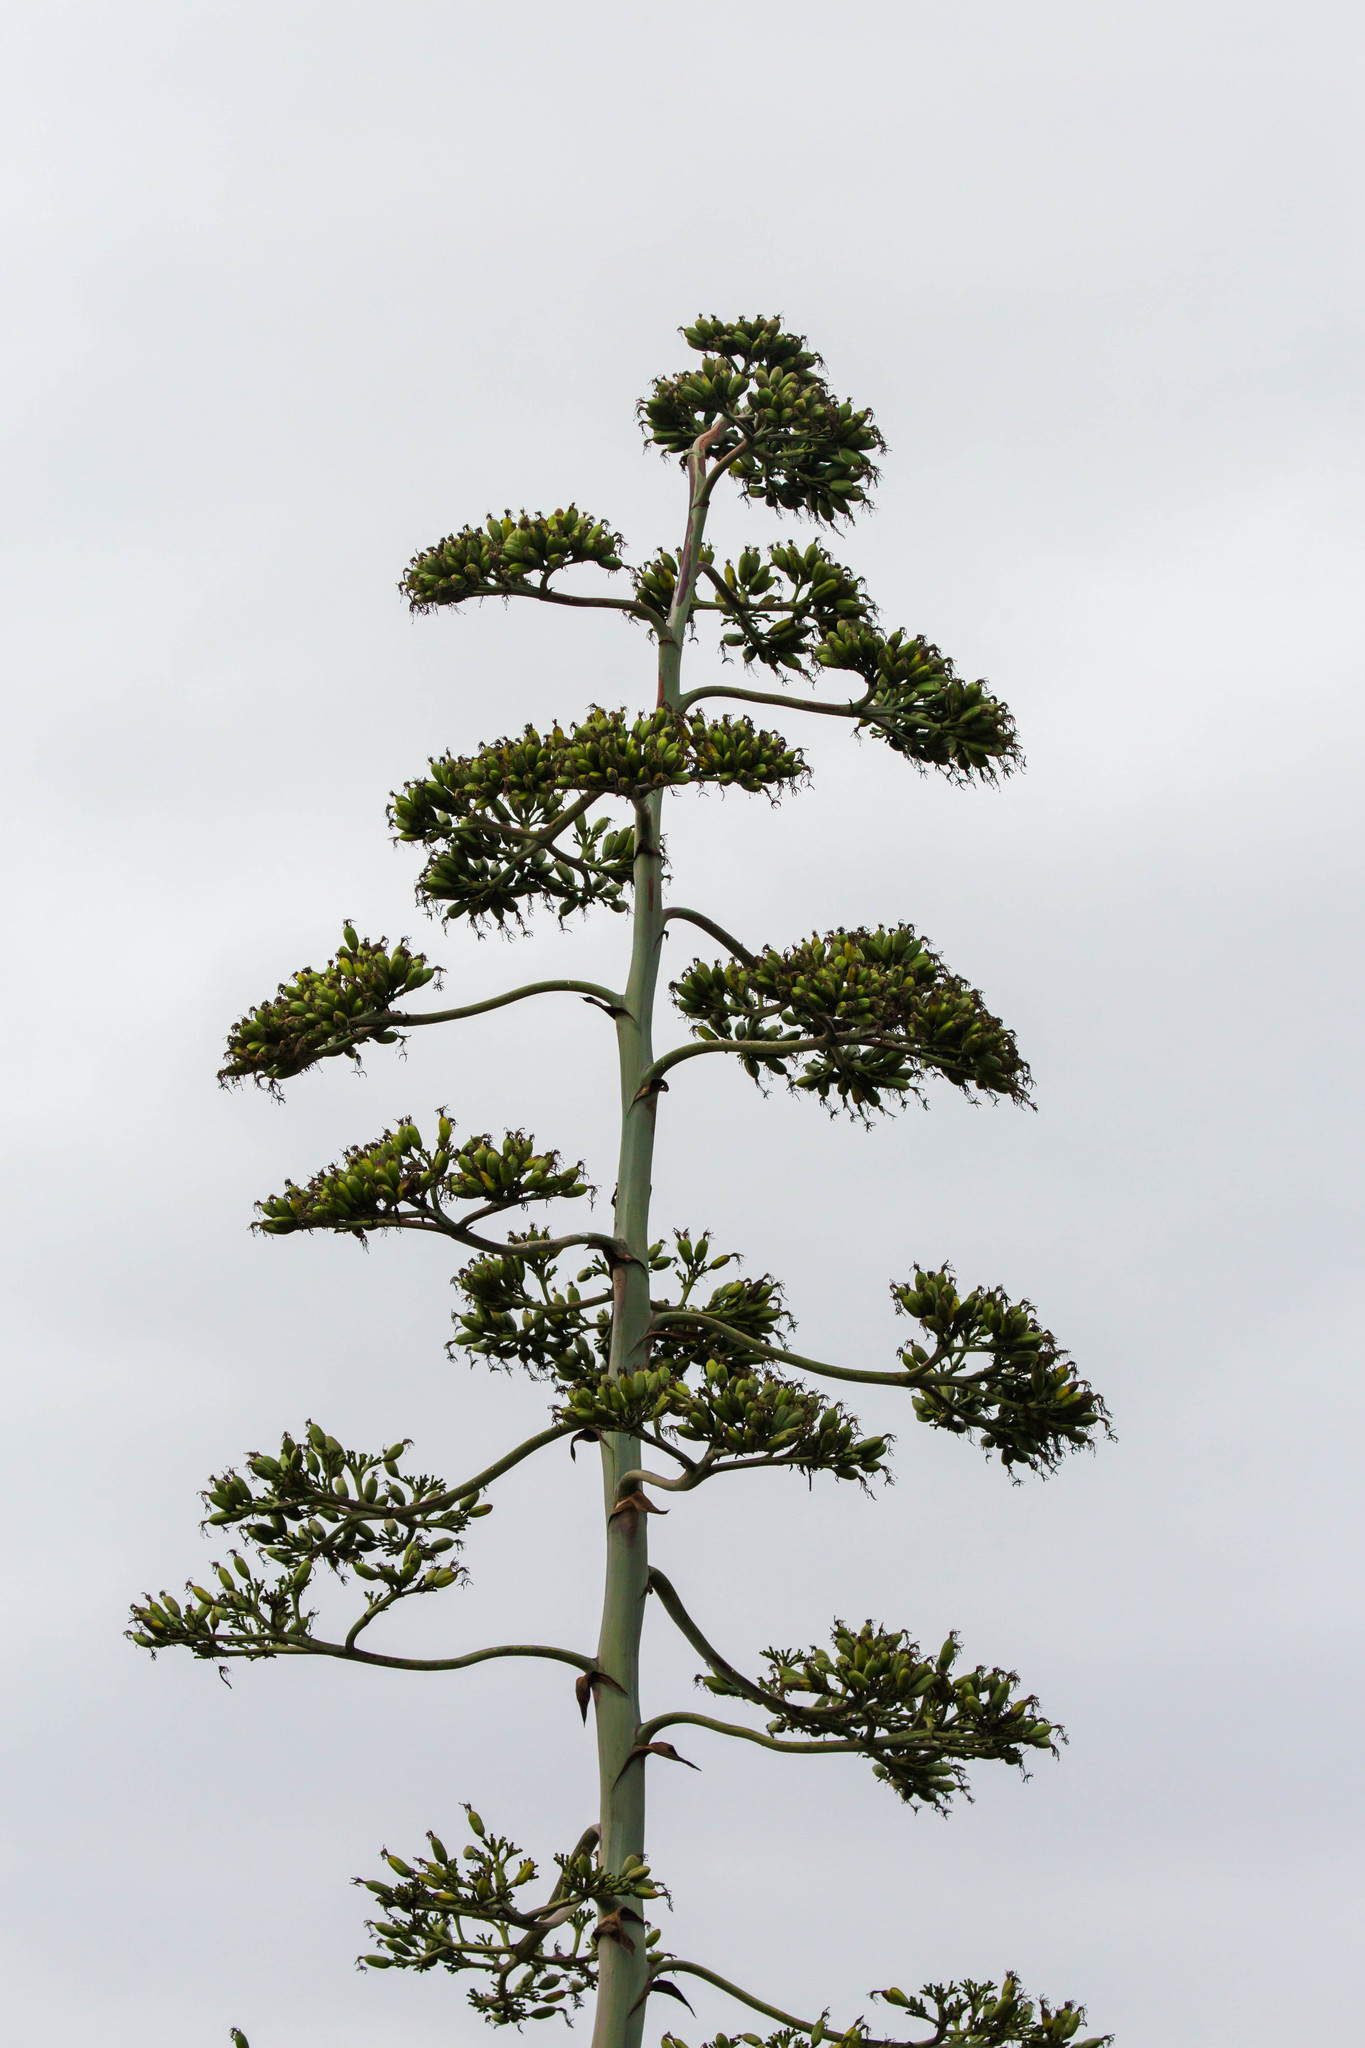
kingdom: Plantae
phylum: Tracheophyta
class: Liliopsida
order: Asparagales
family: Asparagaceae
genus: Agave
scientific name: Agave americana
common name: Centuryplant
